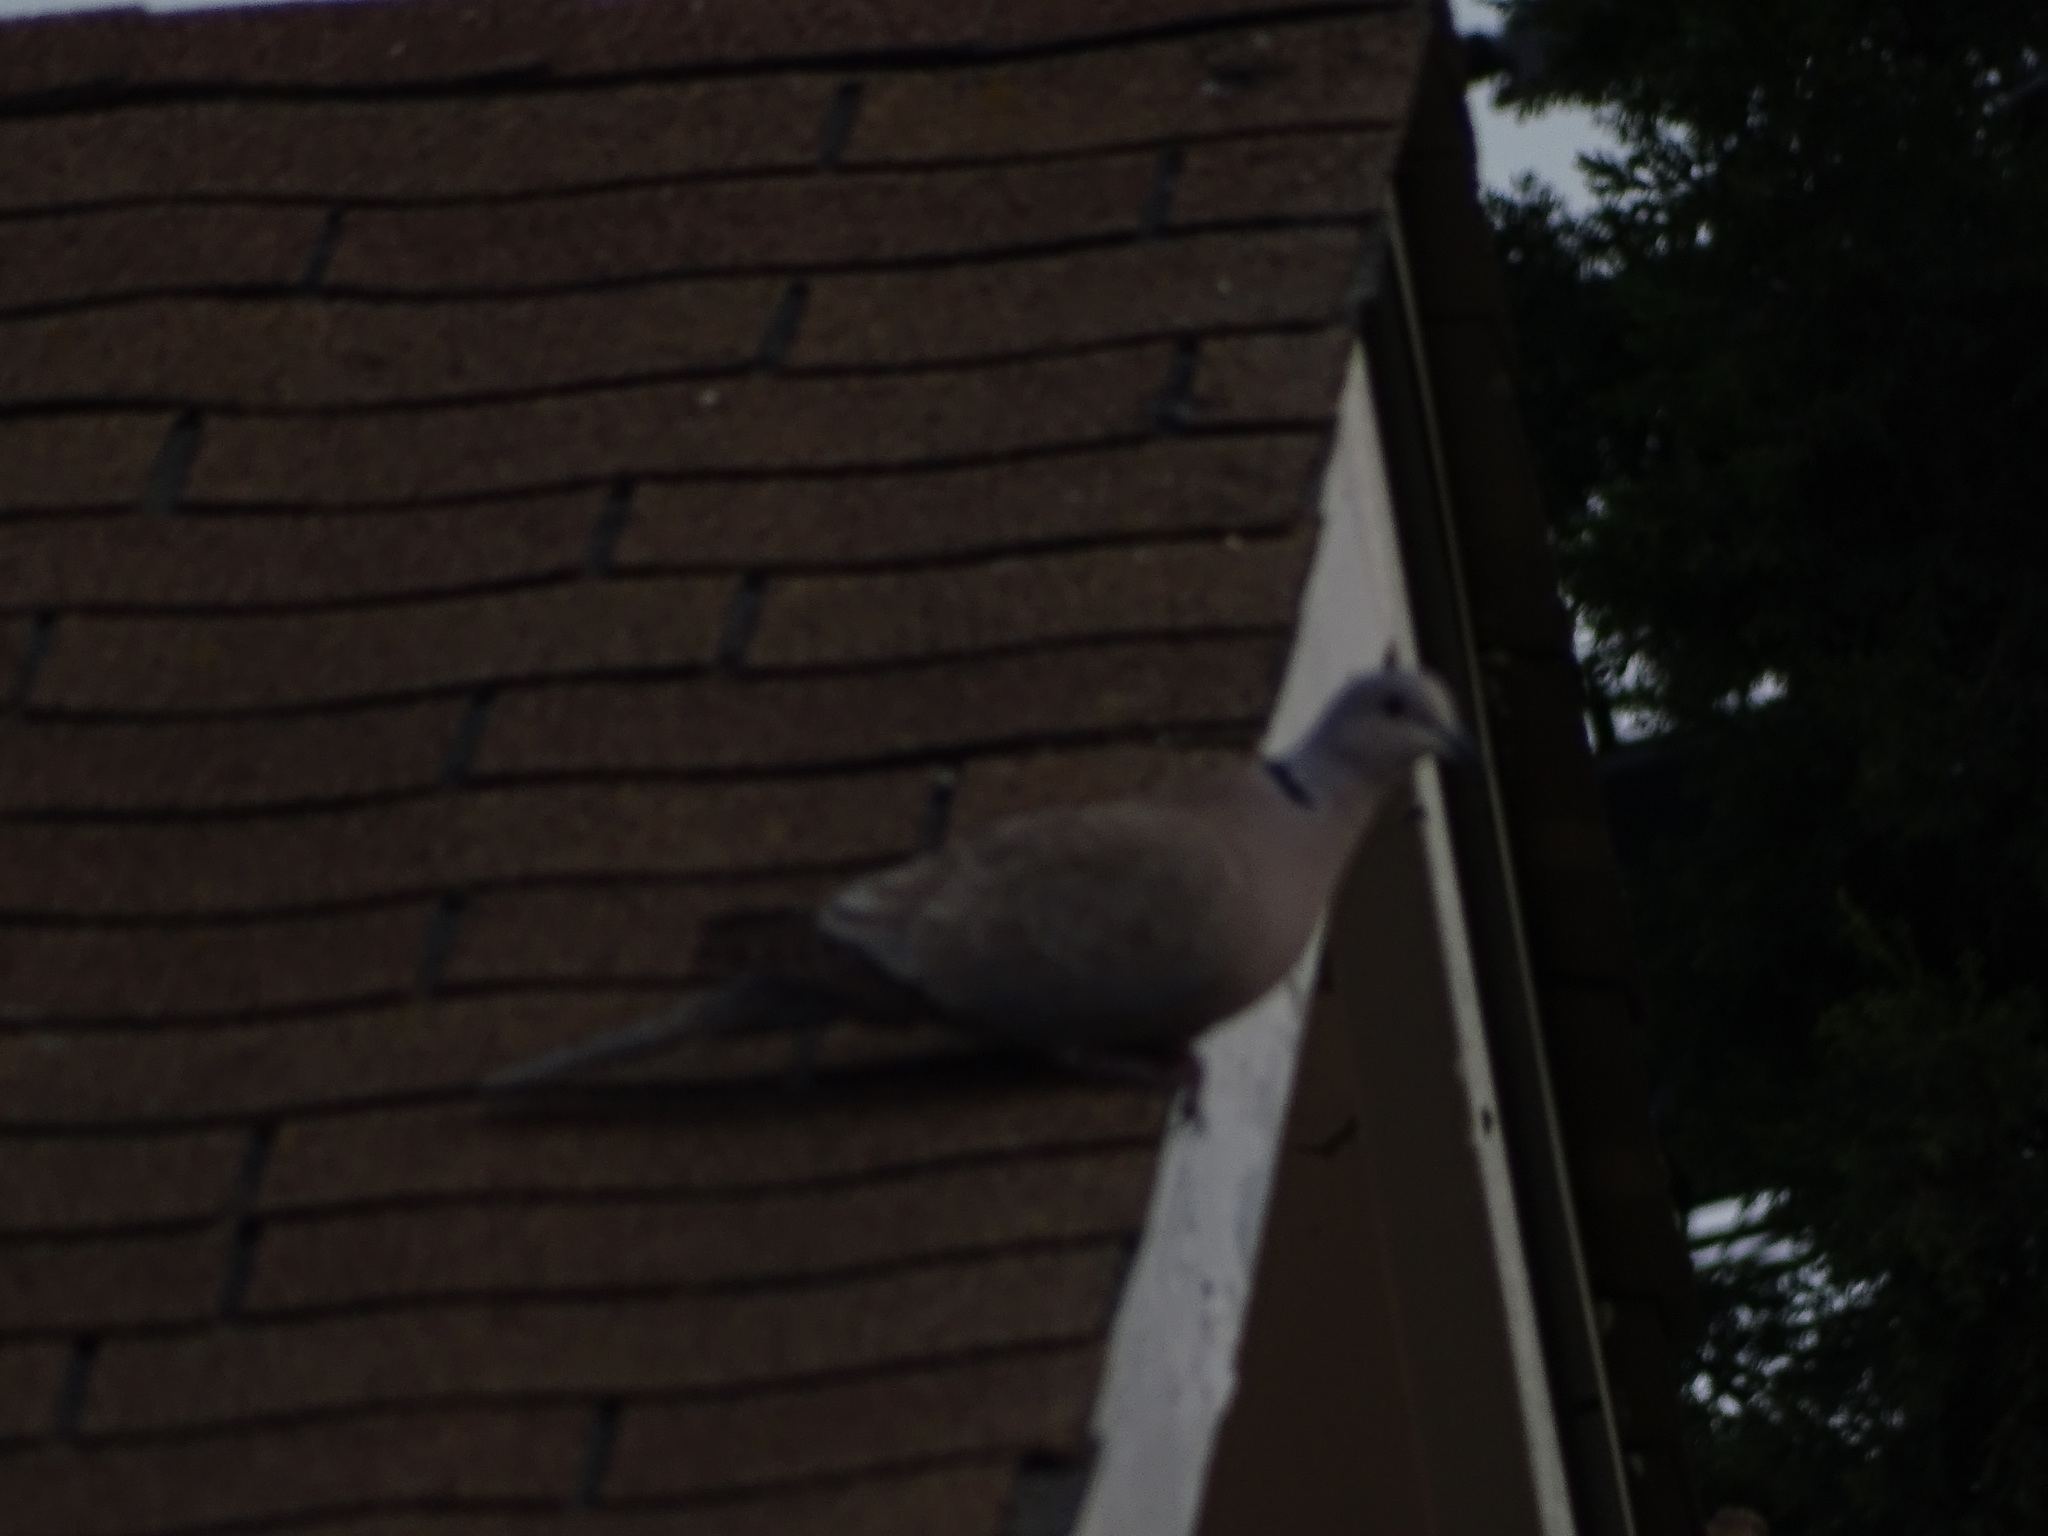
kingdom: Animalia
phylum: Chordata
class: Aves
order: Columbiformes
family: Columbidae
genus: Streptopelia
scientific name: Streptopelia decaocto
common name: Eurasian collared dove
